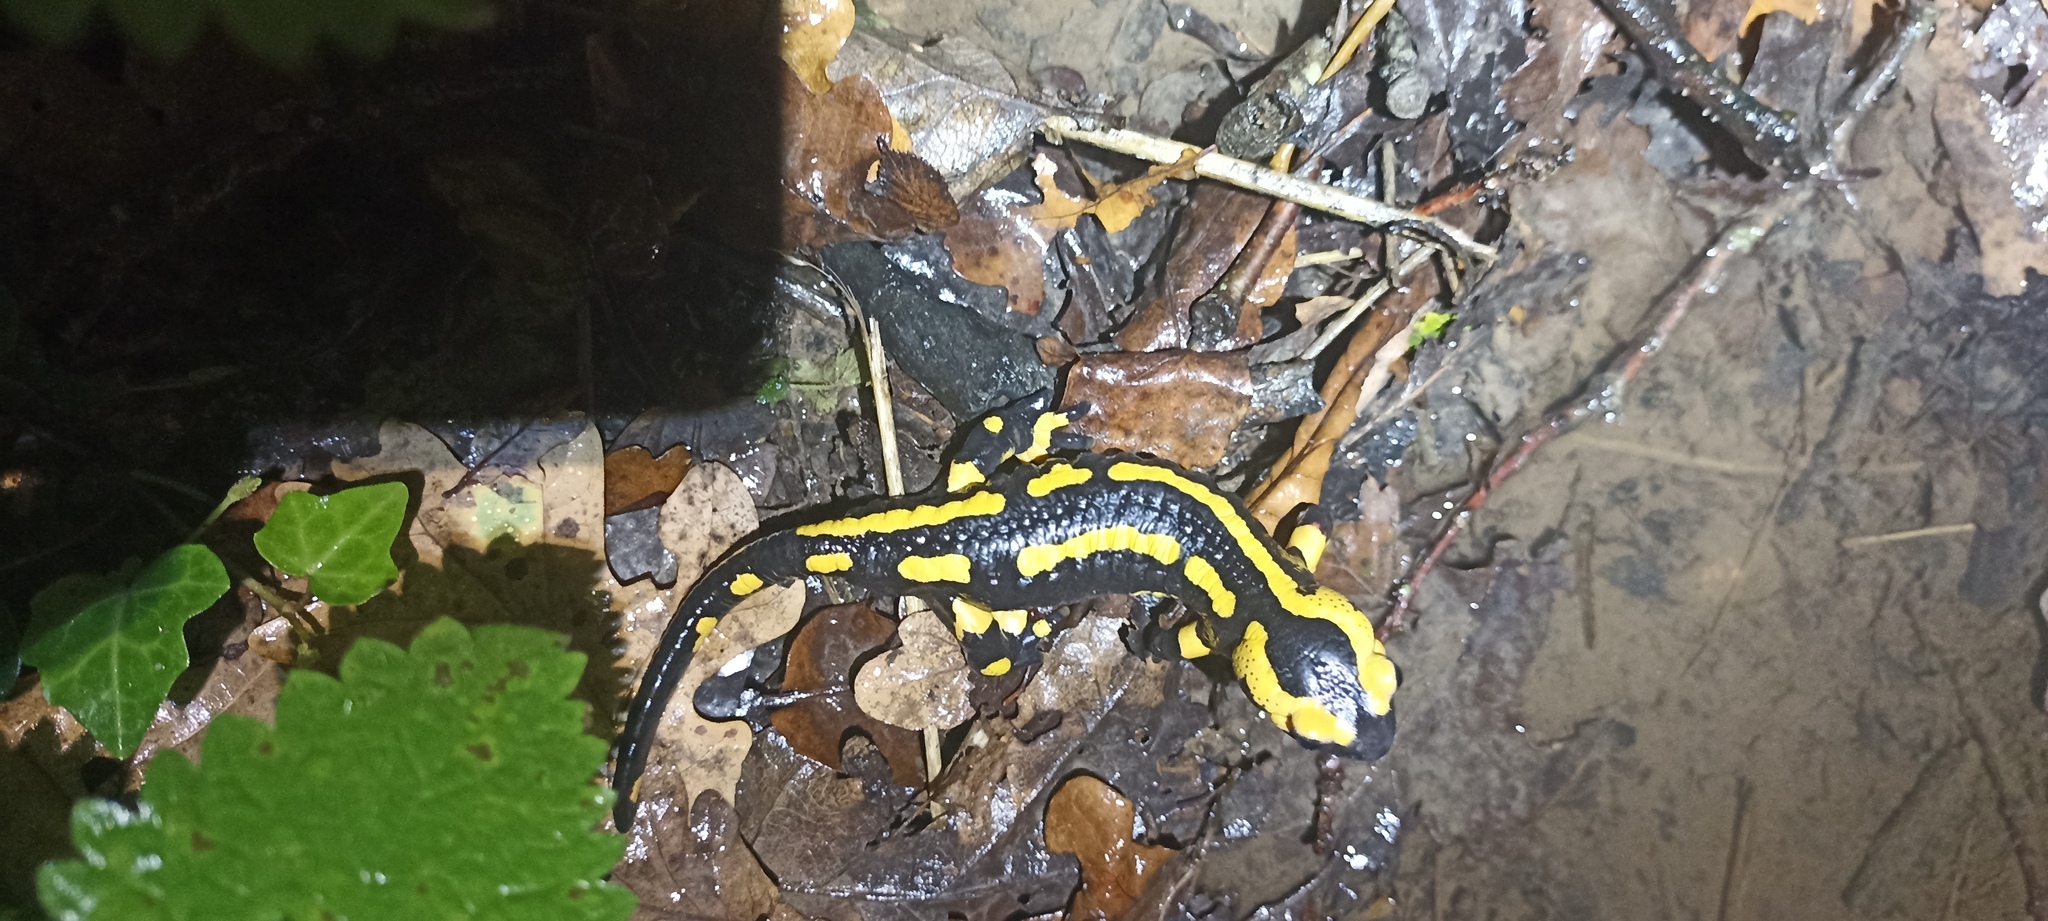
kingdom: Animalia
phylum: Chordata
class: Amphibia
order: Caudata
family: Salamandridae
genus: Salamandra
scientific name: Salamandra salamandra
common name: Fire salamander
